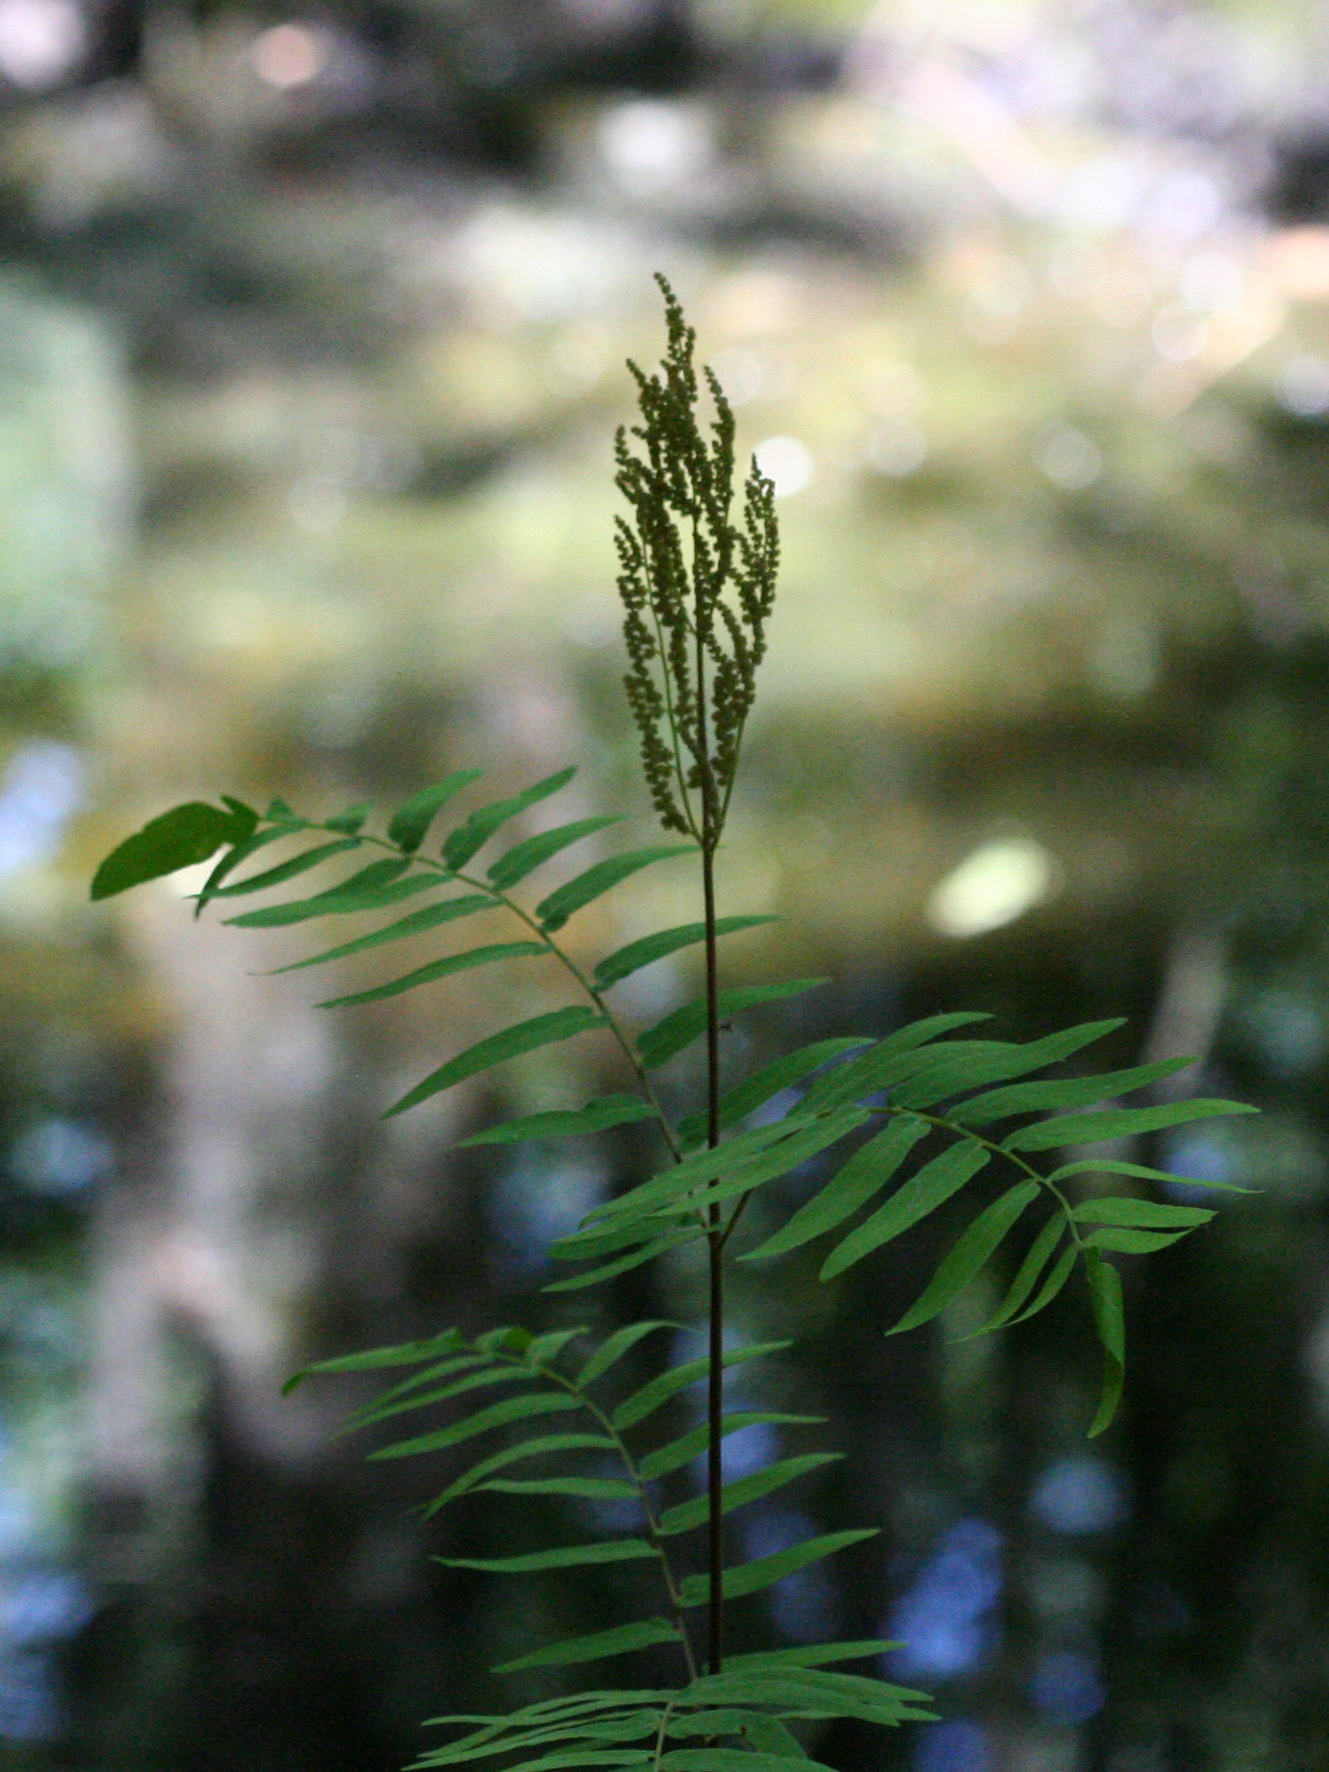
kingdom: Plantae
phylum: Tracheophyta
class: Polypodiopsida
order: Osmundales
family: Osmundaceae
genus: Osmunda
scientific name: Osmunda spectabilis
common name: American royal fern
